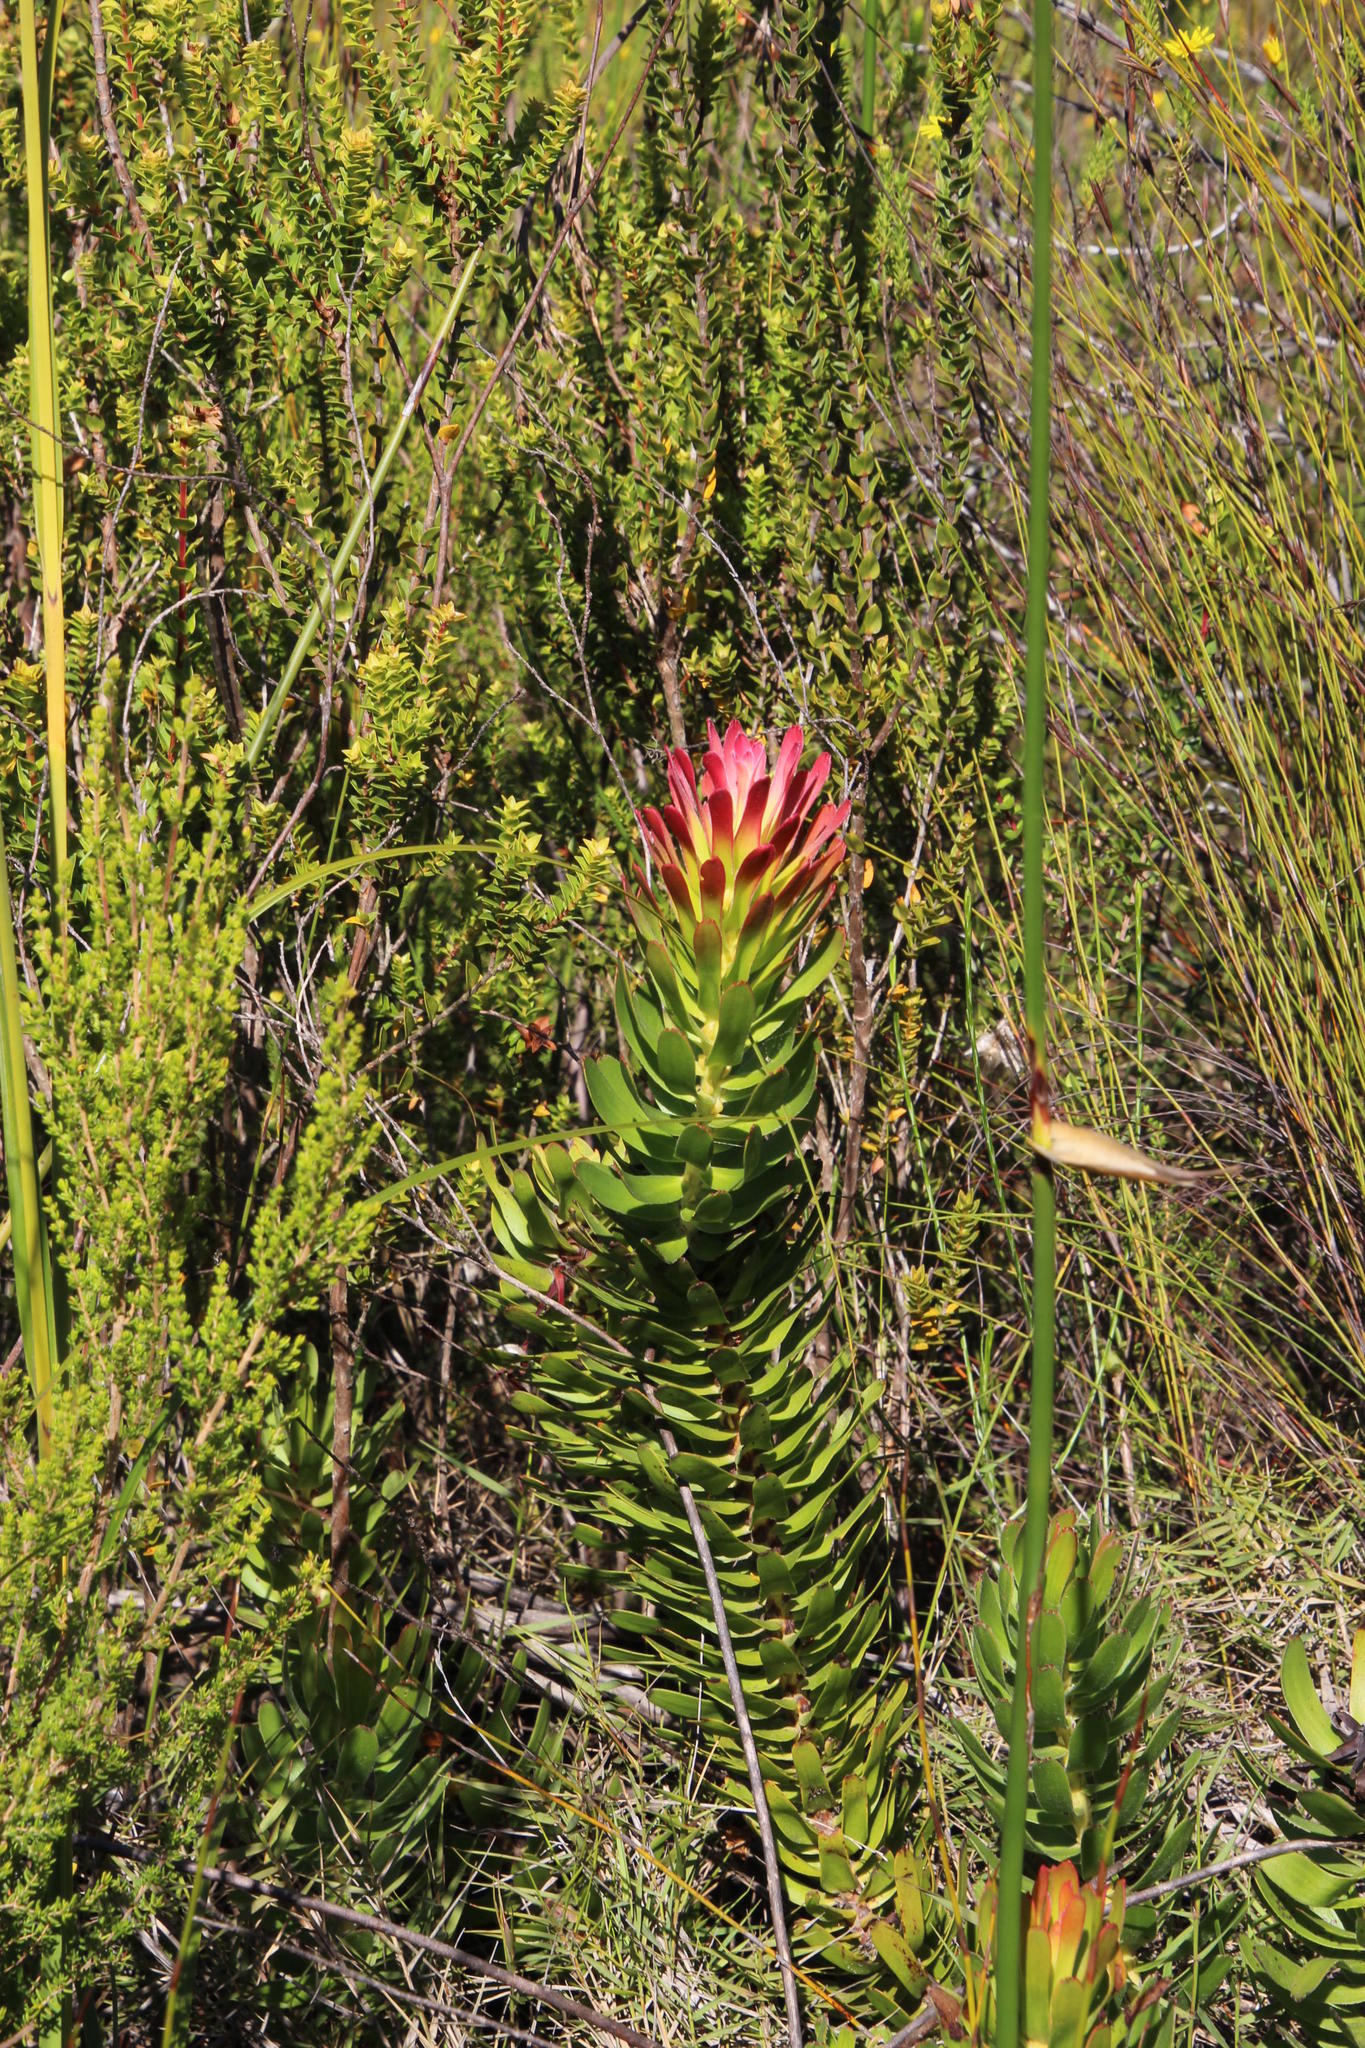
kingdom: Plantae
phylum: Tracheophyta
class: Magnoliopsida
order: Proteales
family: Proteaceae
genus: Mimetes
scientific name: Mimetes cucullatus
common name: Common pagoda
